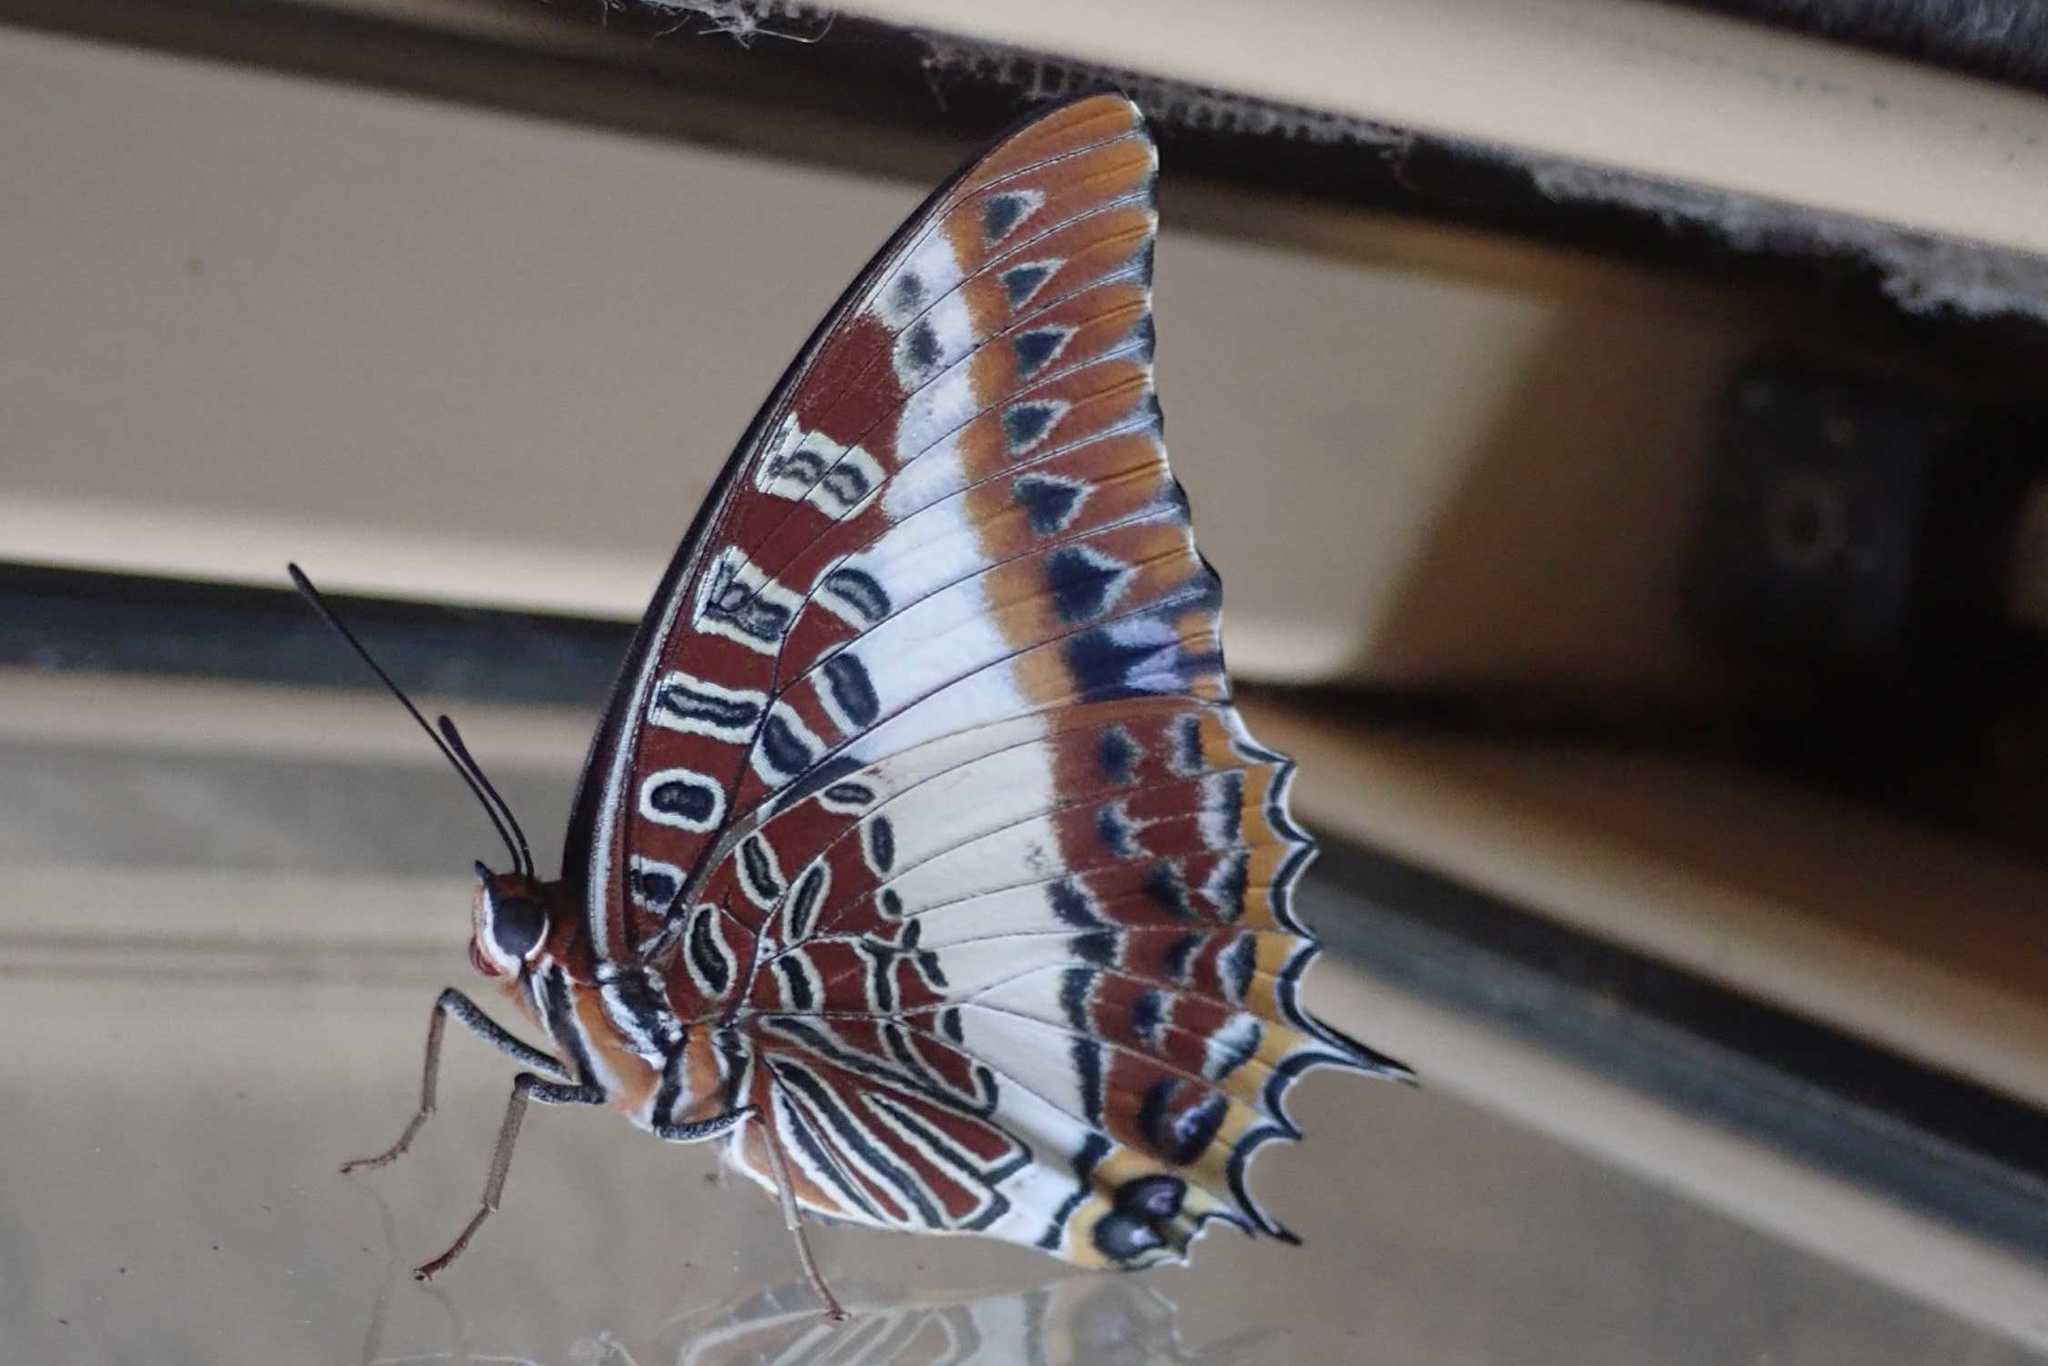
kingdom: Animalia
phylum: Arthropoda
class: Insecta
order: Lepidoptera
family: Nymphalidae
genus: Charaxes
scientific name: Charaxes brutus
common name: White-barred charaxes
